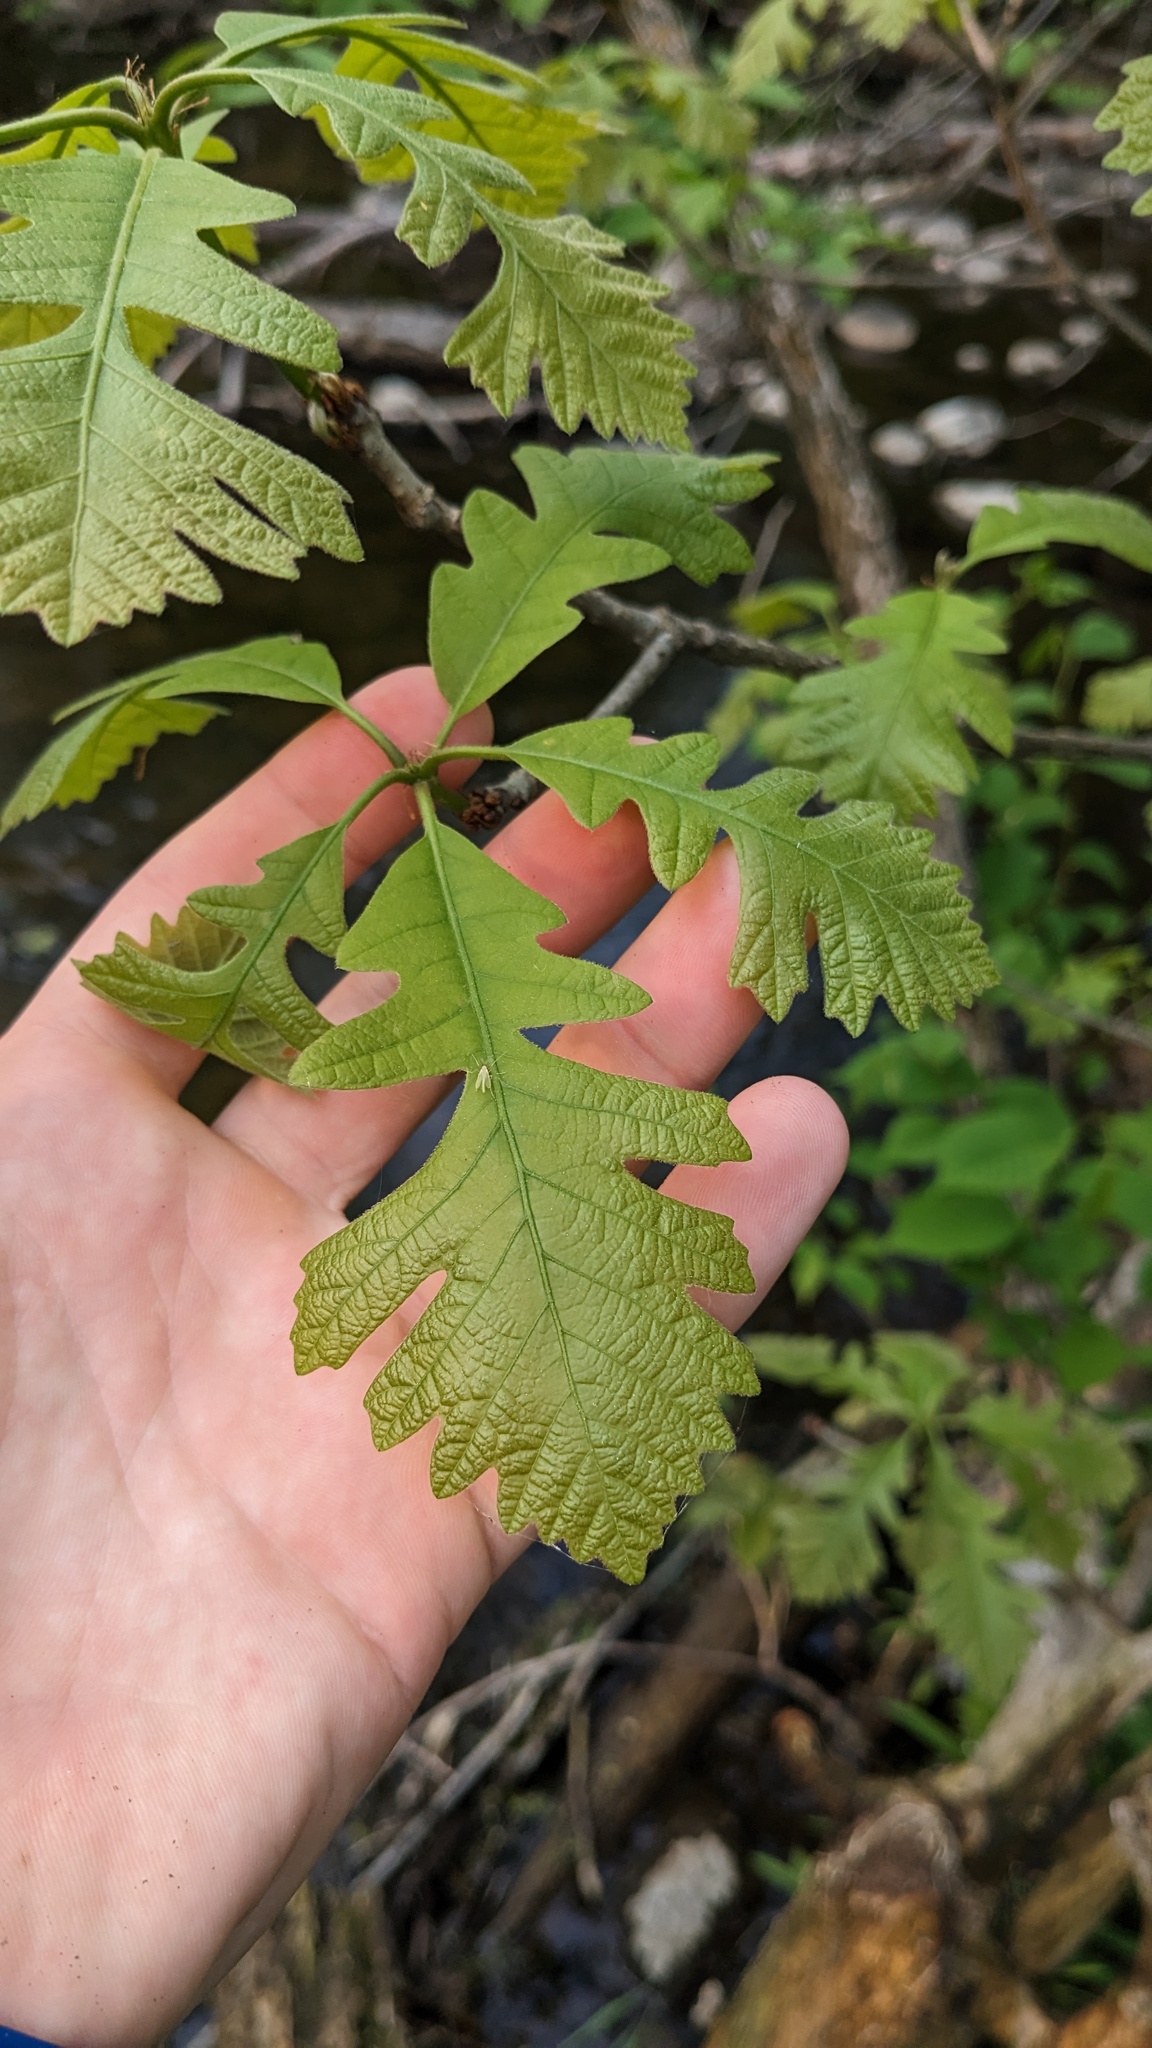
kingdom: Plantae
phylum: Tracheophyta
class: Magnoliopsida
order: Fagales
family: Fagaceae
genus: Quercus
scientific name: Quercus macrocarpa
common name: Bur oak
